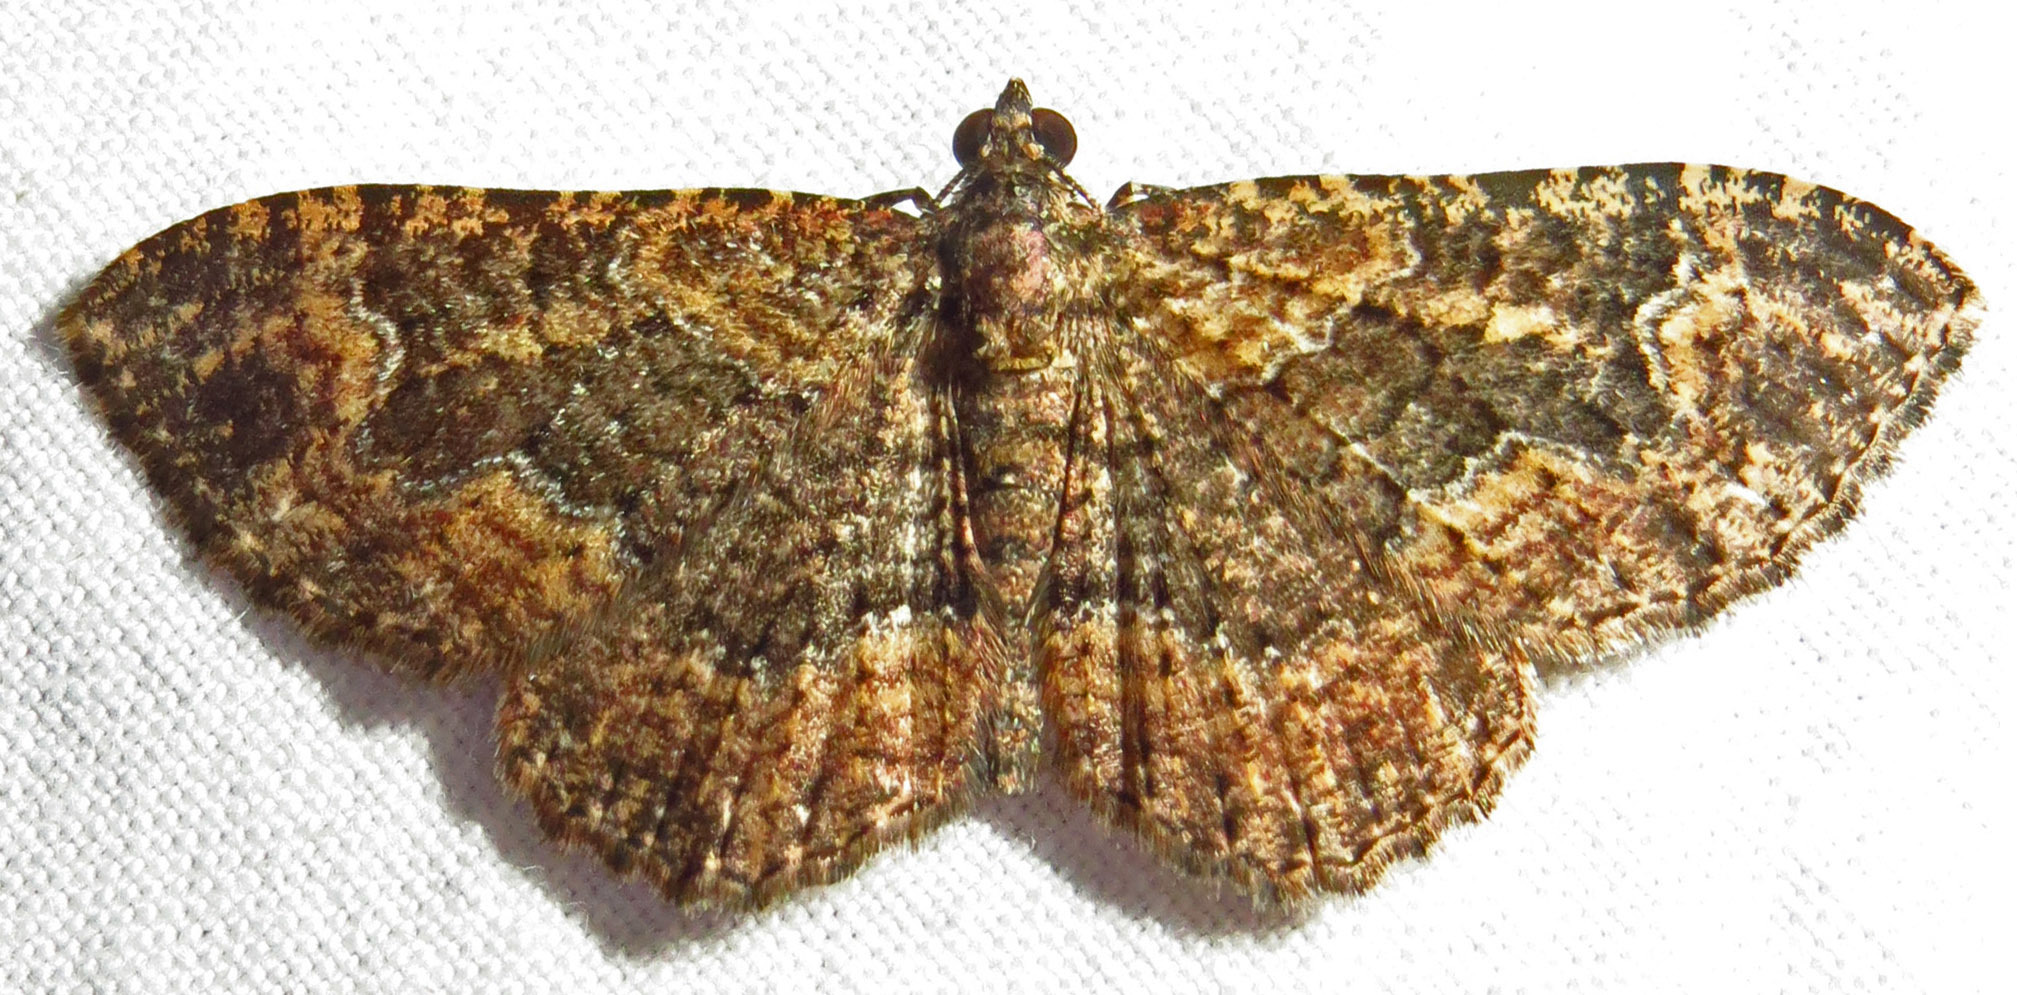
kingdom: Animalia
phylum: Arthropoda
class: Insecta
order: Lepidoptera
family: Geometridae
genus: Disclisioprocta
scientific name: Disclisioprocta stellata
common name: Somber carpet
